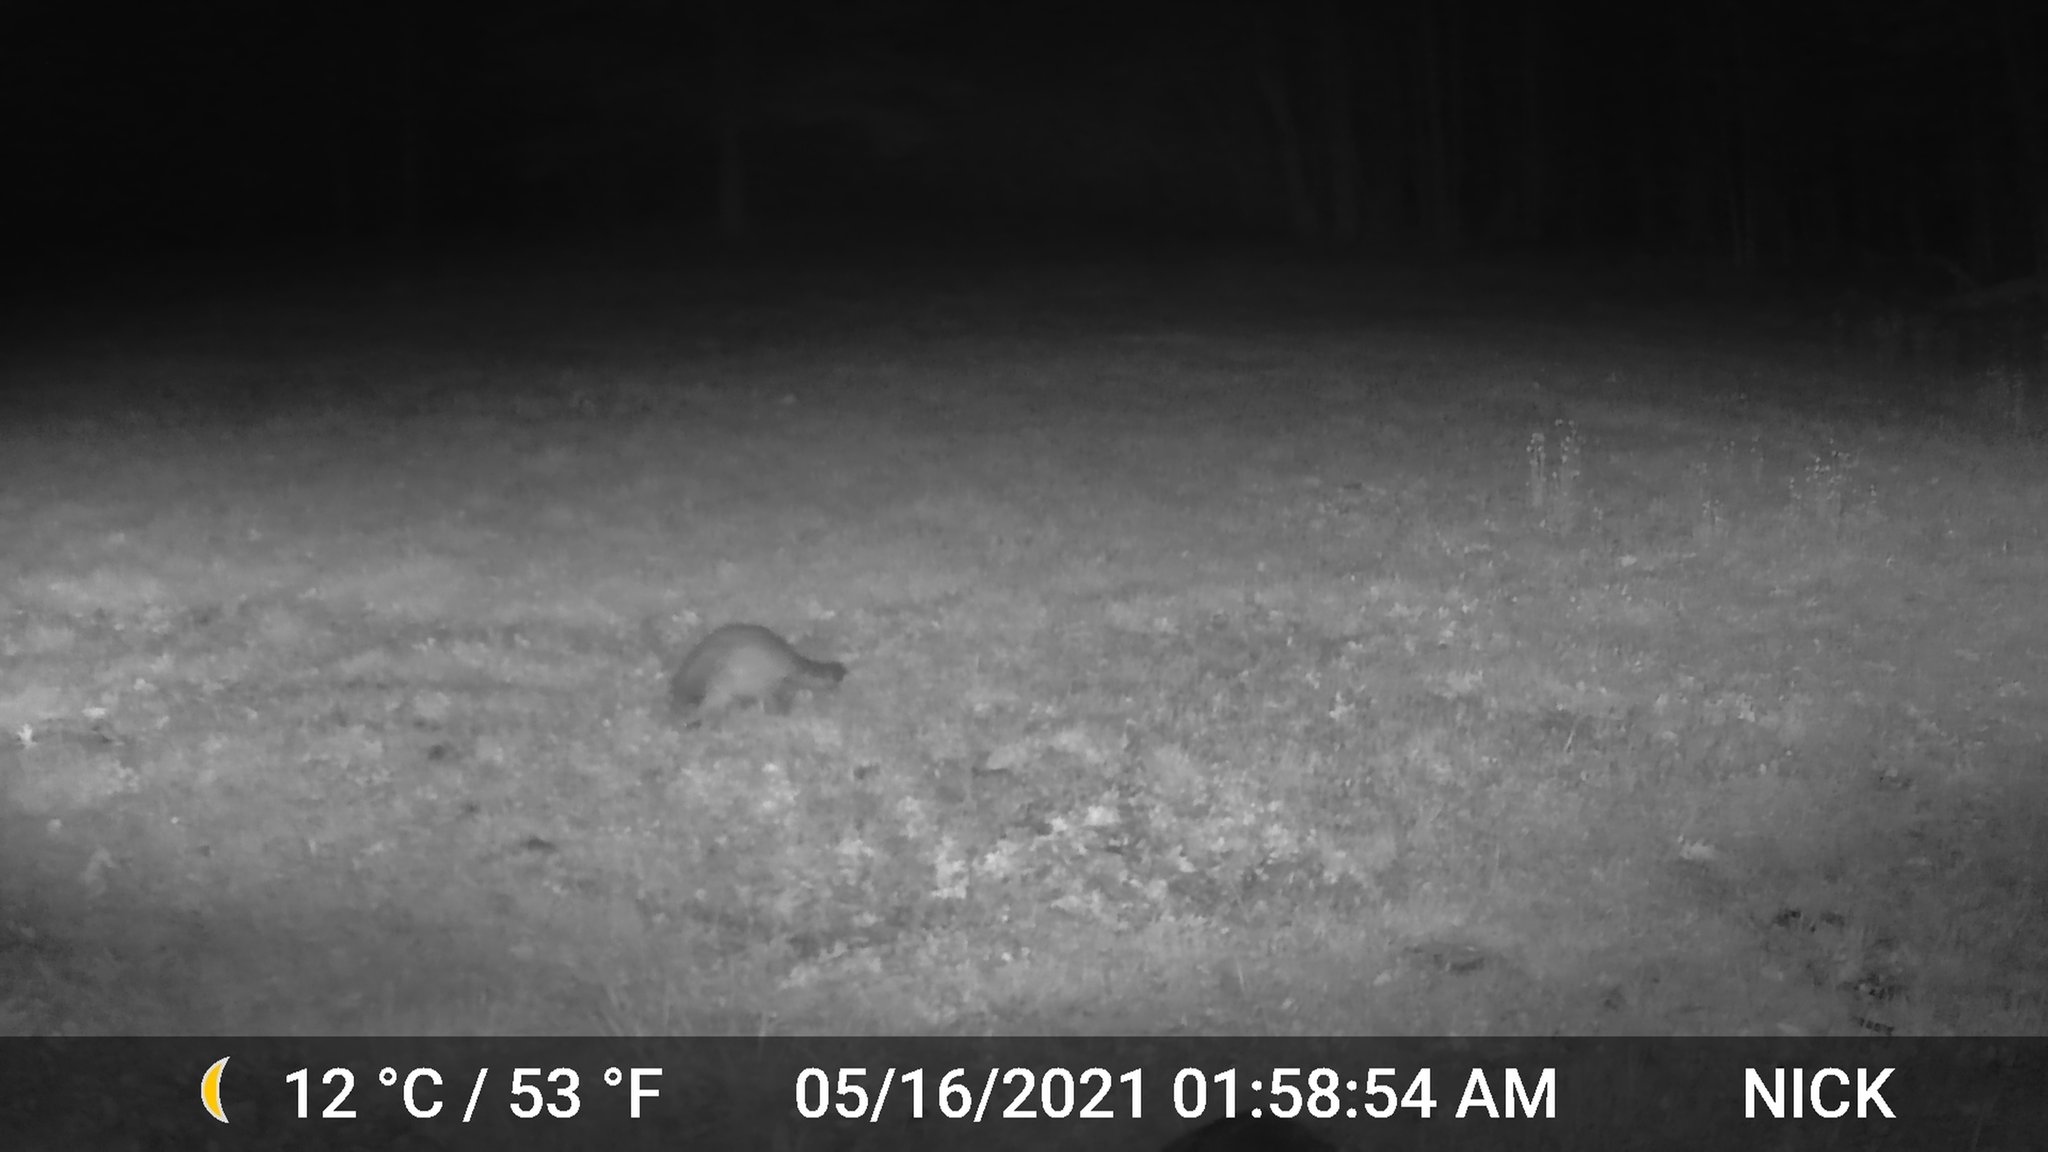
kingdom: Animalia
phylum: Chordata
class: Mammalia
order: Carnivora
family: Procyonidae
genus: Procyon
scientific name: Procyon lotor
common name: Raccoon
